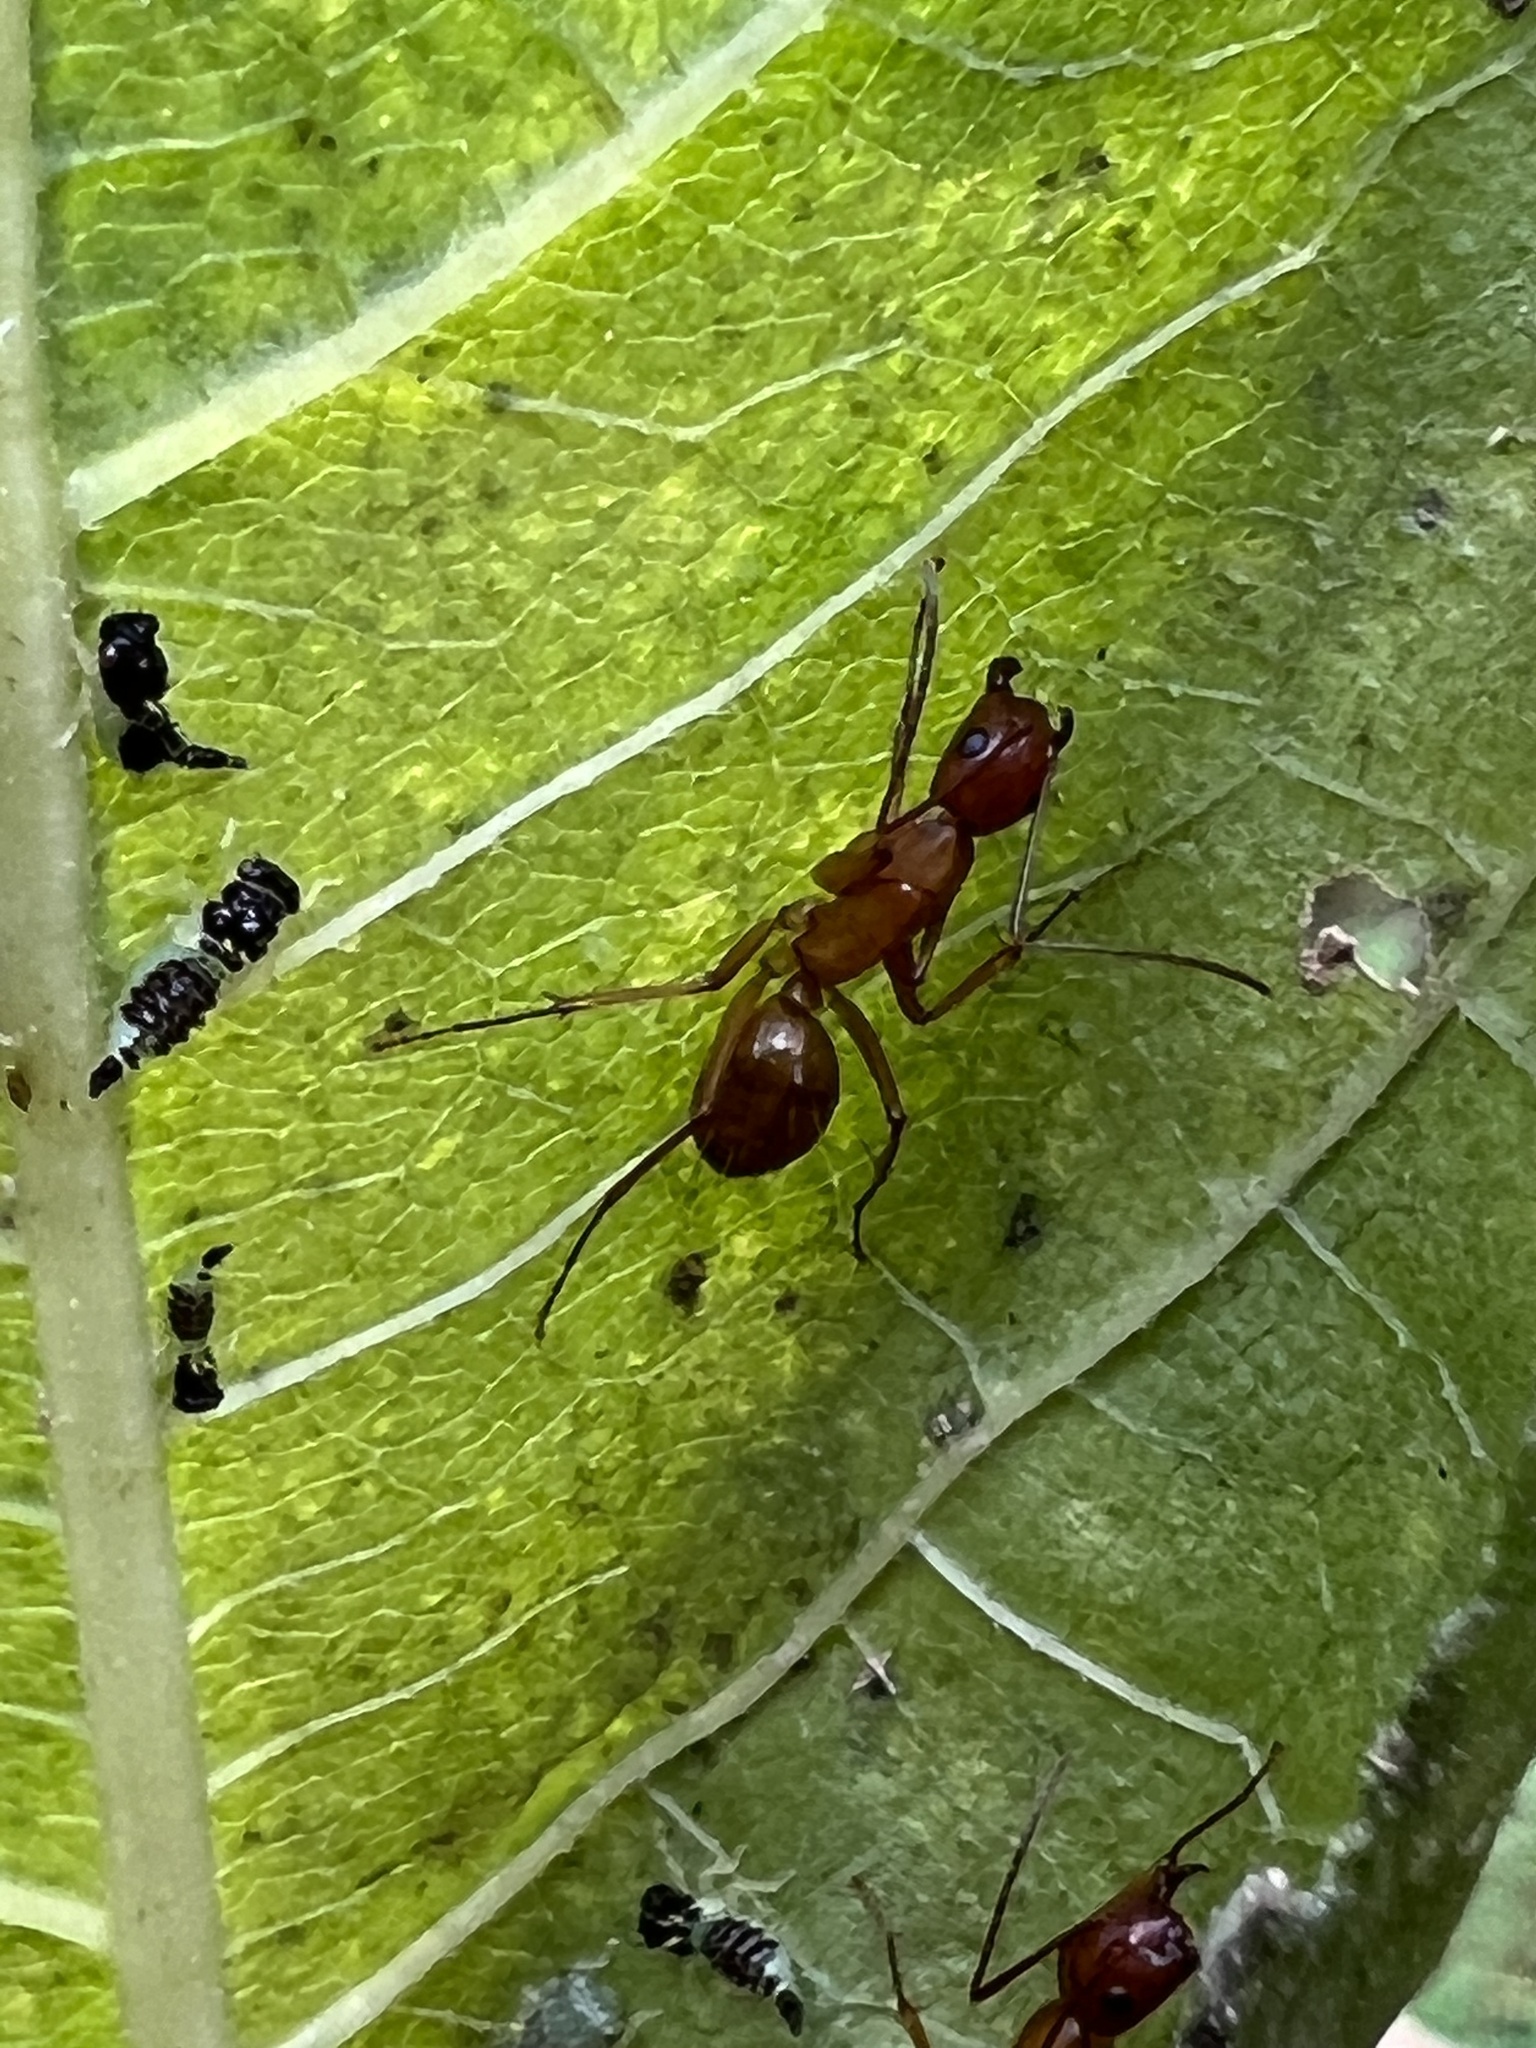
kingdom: Animalia
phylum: Arthropoda
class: Insecta
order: Hymenoptera
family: Formicidae
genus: Camponotus
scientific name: Camponotus castaneus
